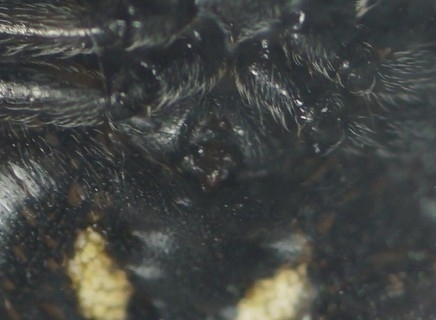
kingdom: Animalia
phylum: Arthropoda
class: Arachnida
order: Araneae
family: Araneidae
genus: Nuctenea
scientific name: Nuctenea umbratica
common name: Toad spider
